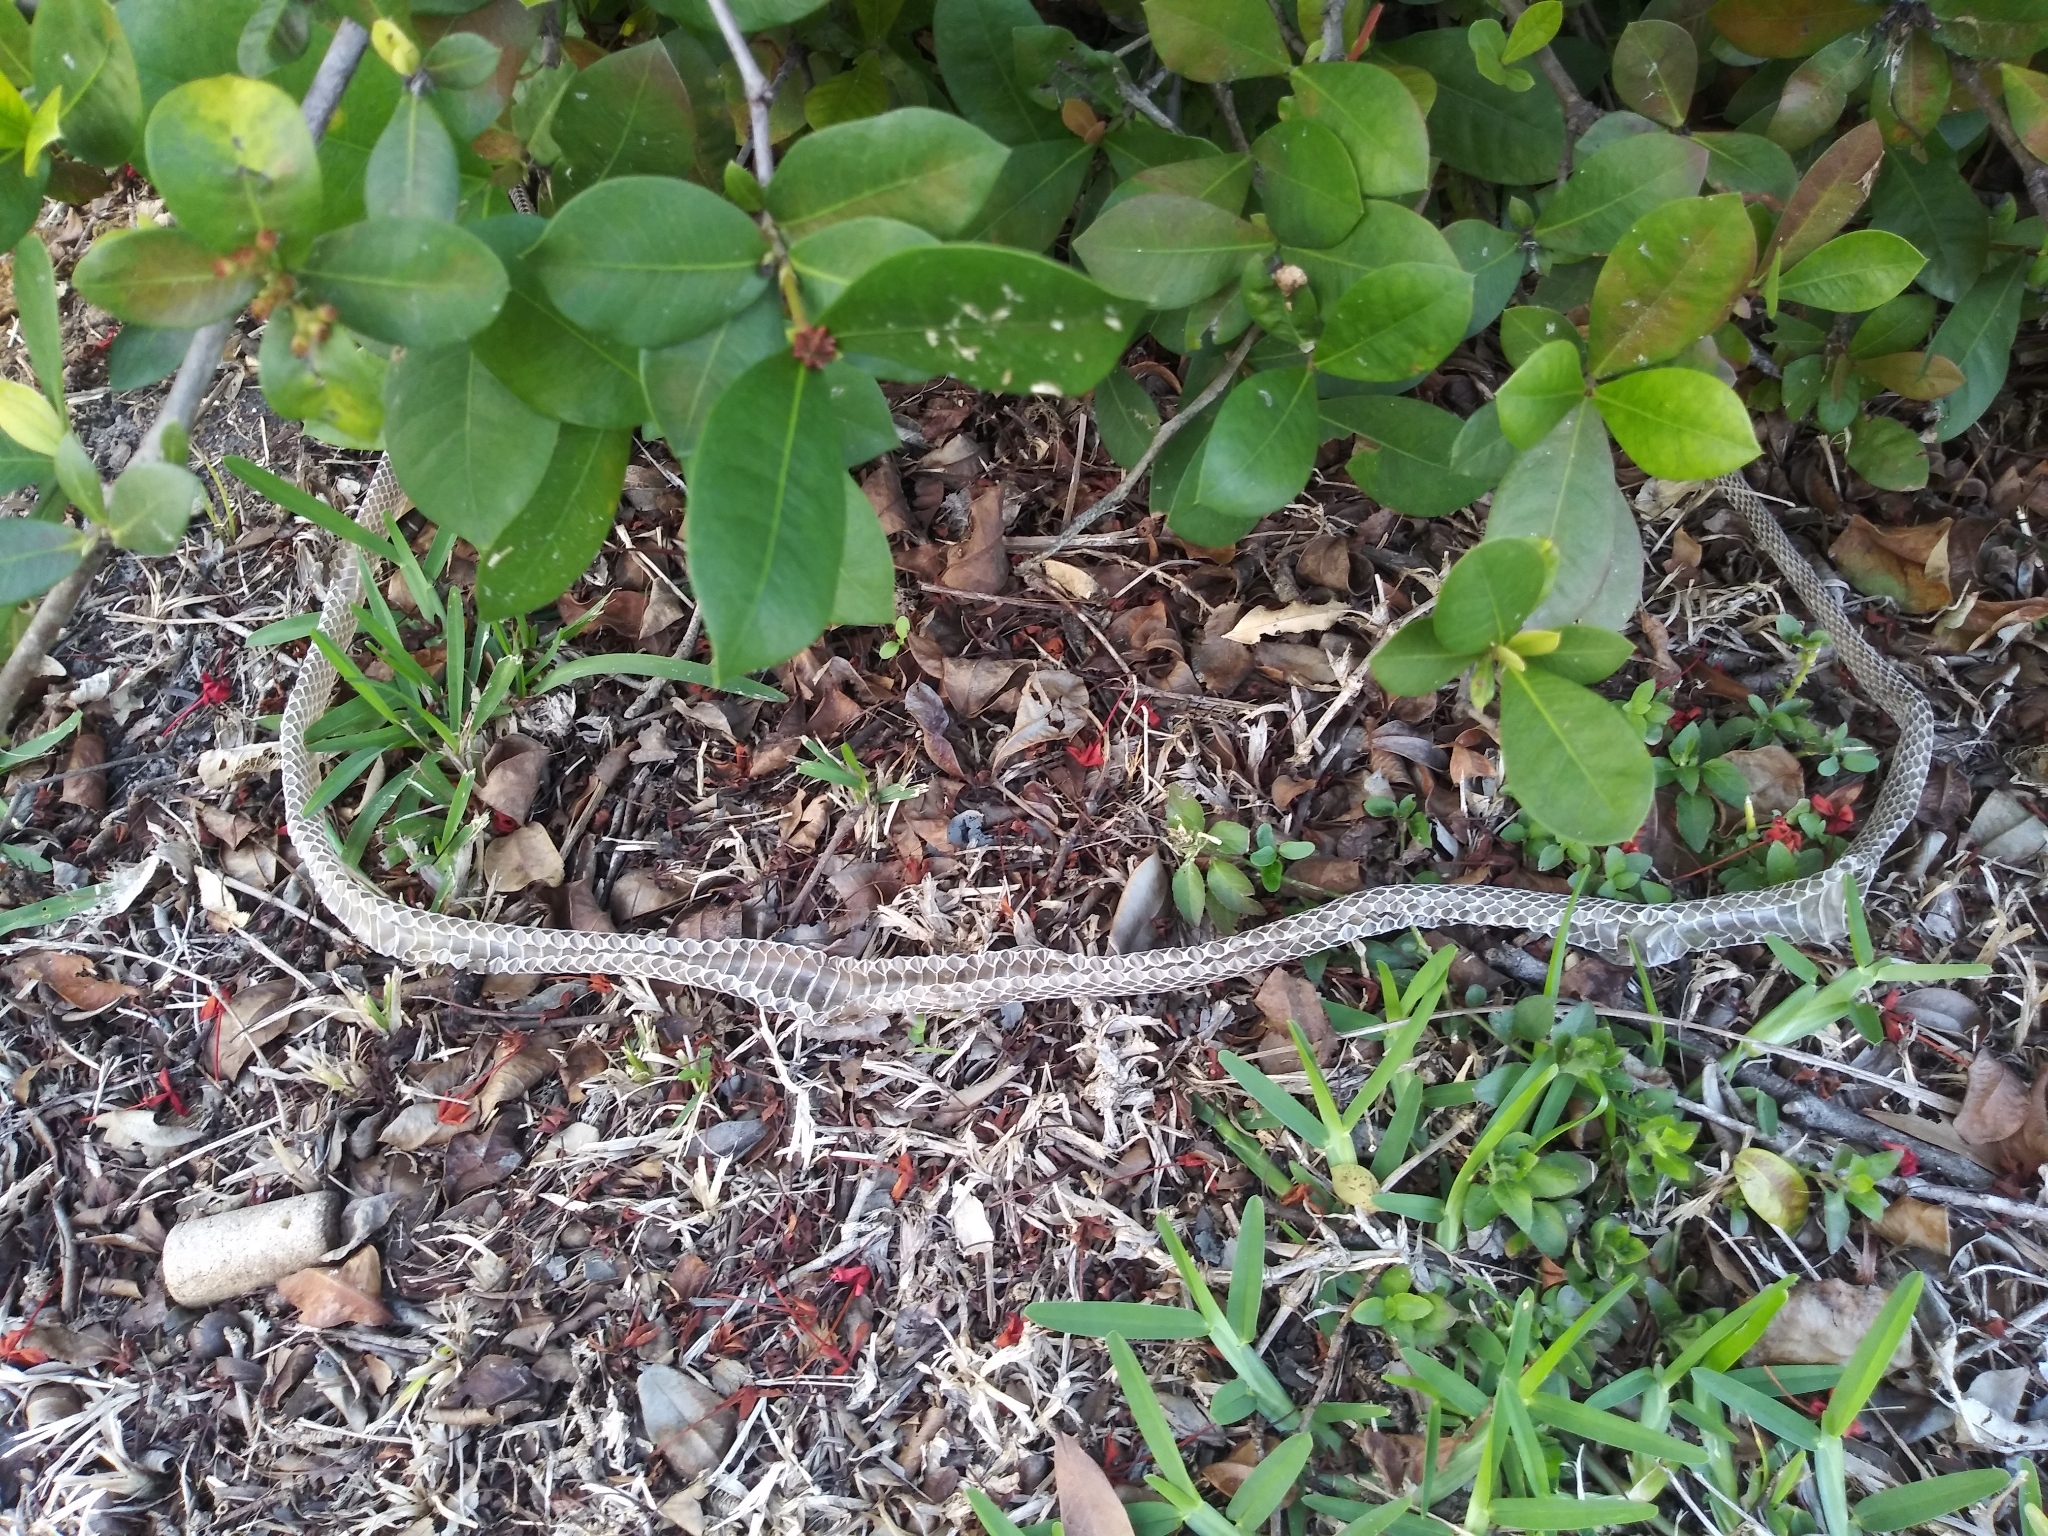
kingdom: Animalia
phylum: Chordata
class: Squamata
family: Colubridae
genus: Coluber
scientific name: Coluber constrictor
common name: Eastern racer
